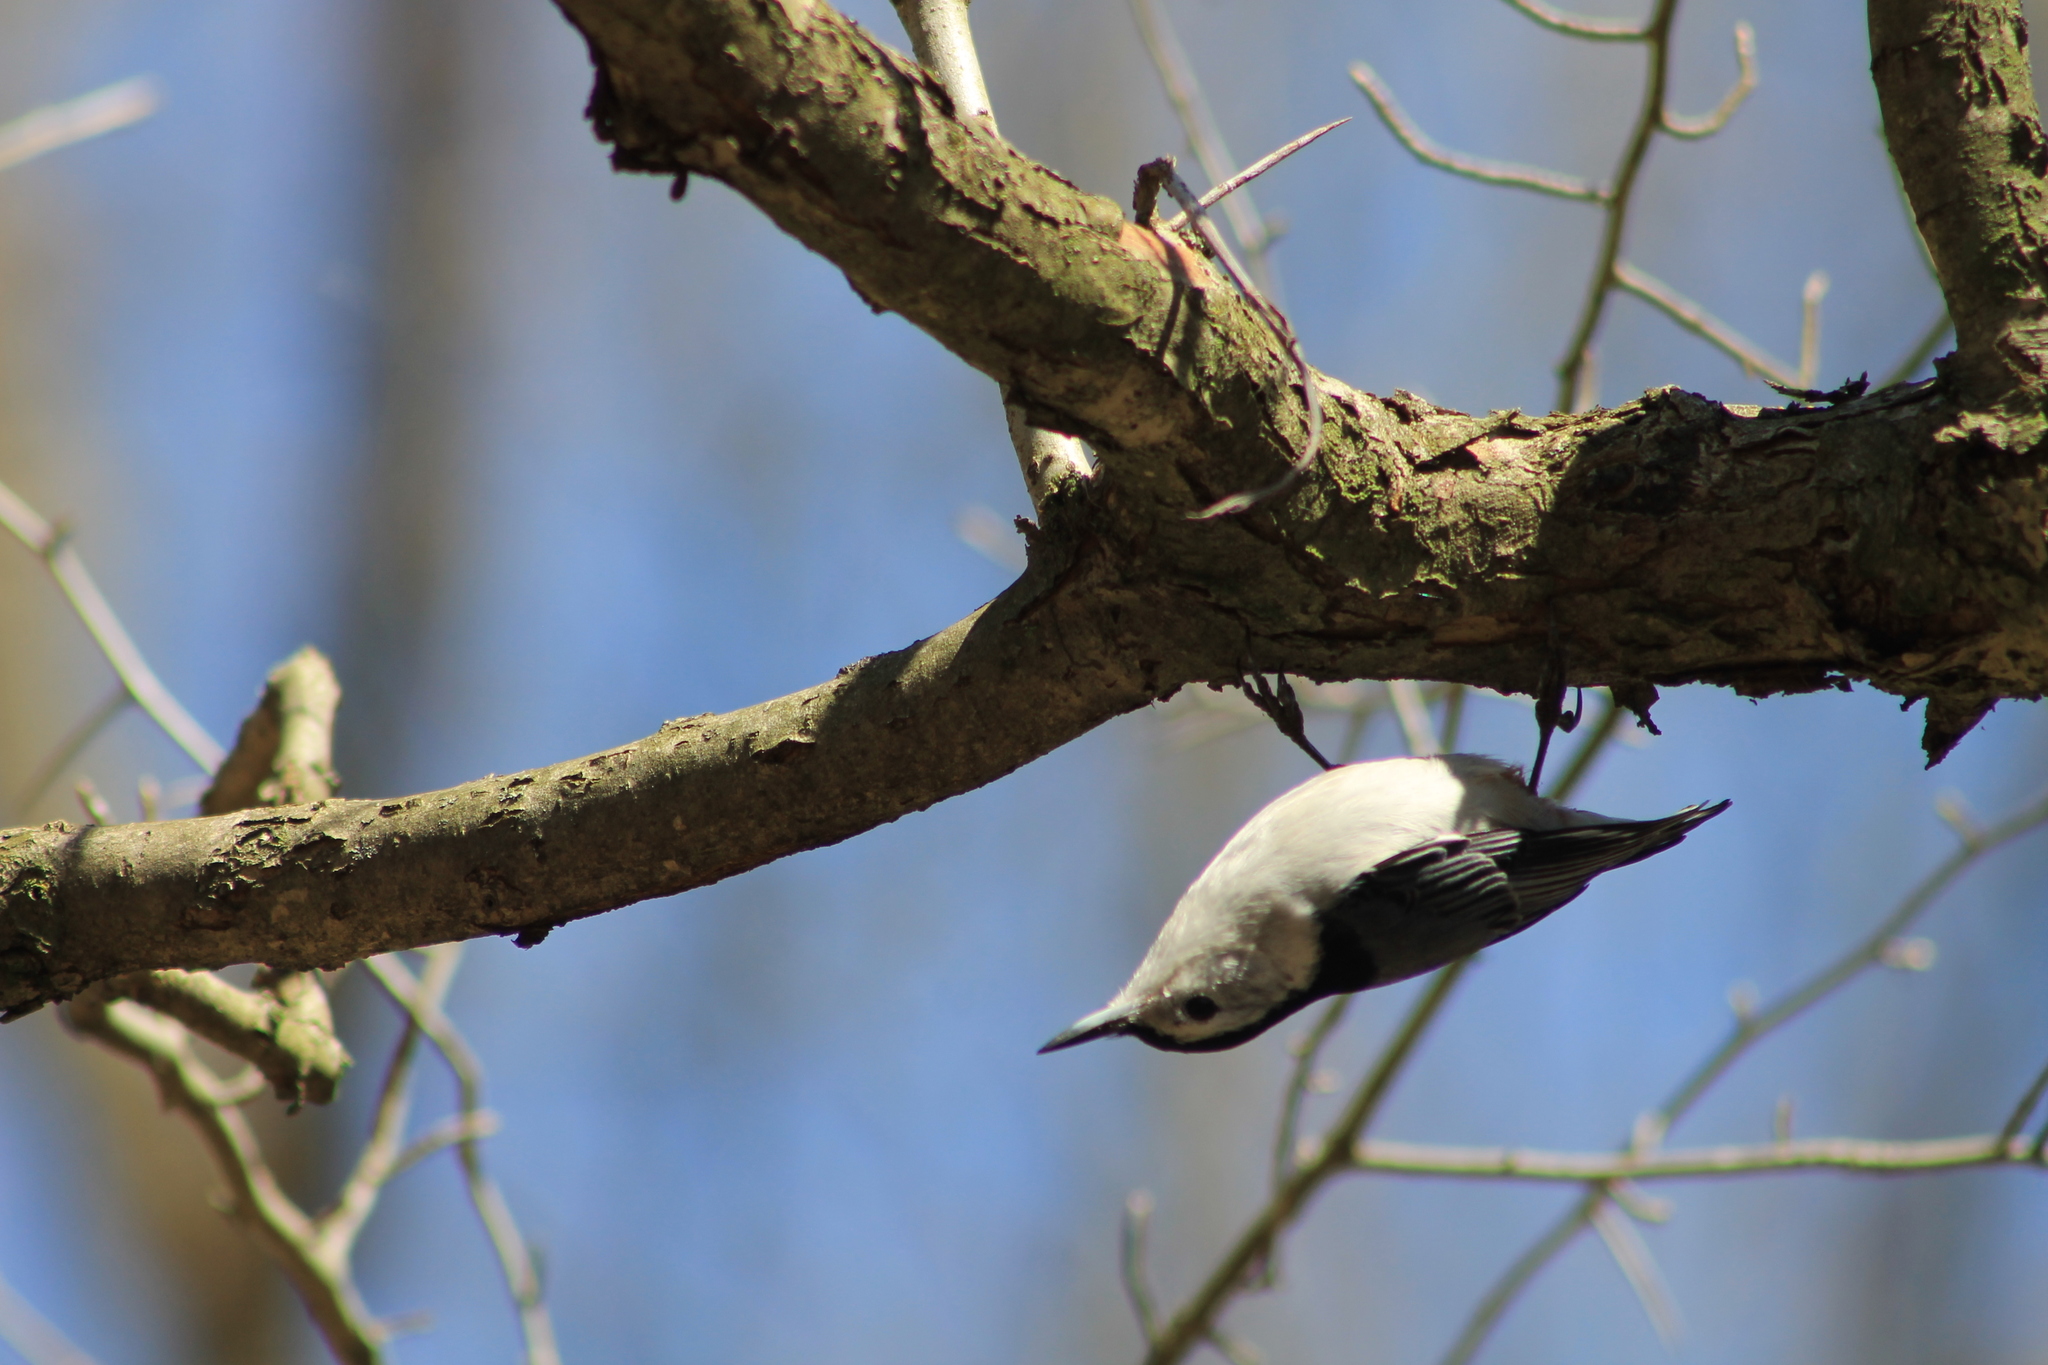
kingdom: Animalia
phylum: Chordata
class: Aves
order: Passeriformes
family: Sittidae
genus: Sitta
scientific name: Sitta carolinensis
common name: White-breasted nuthatch
